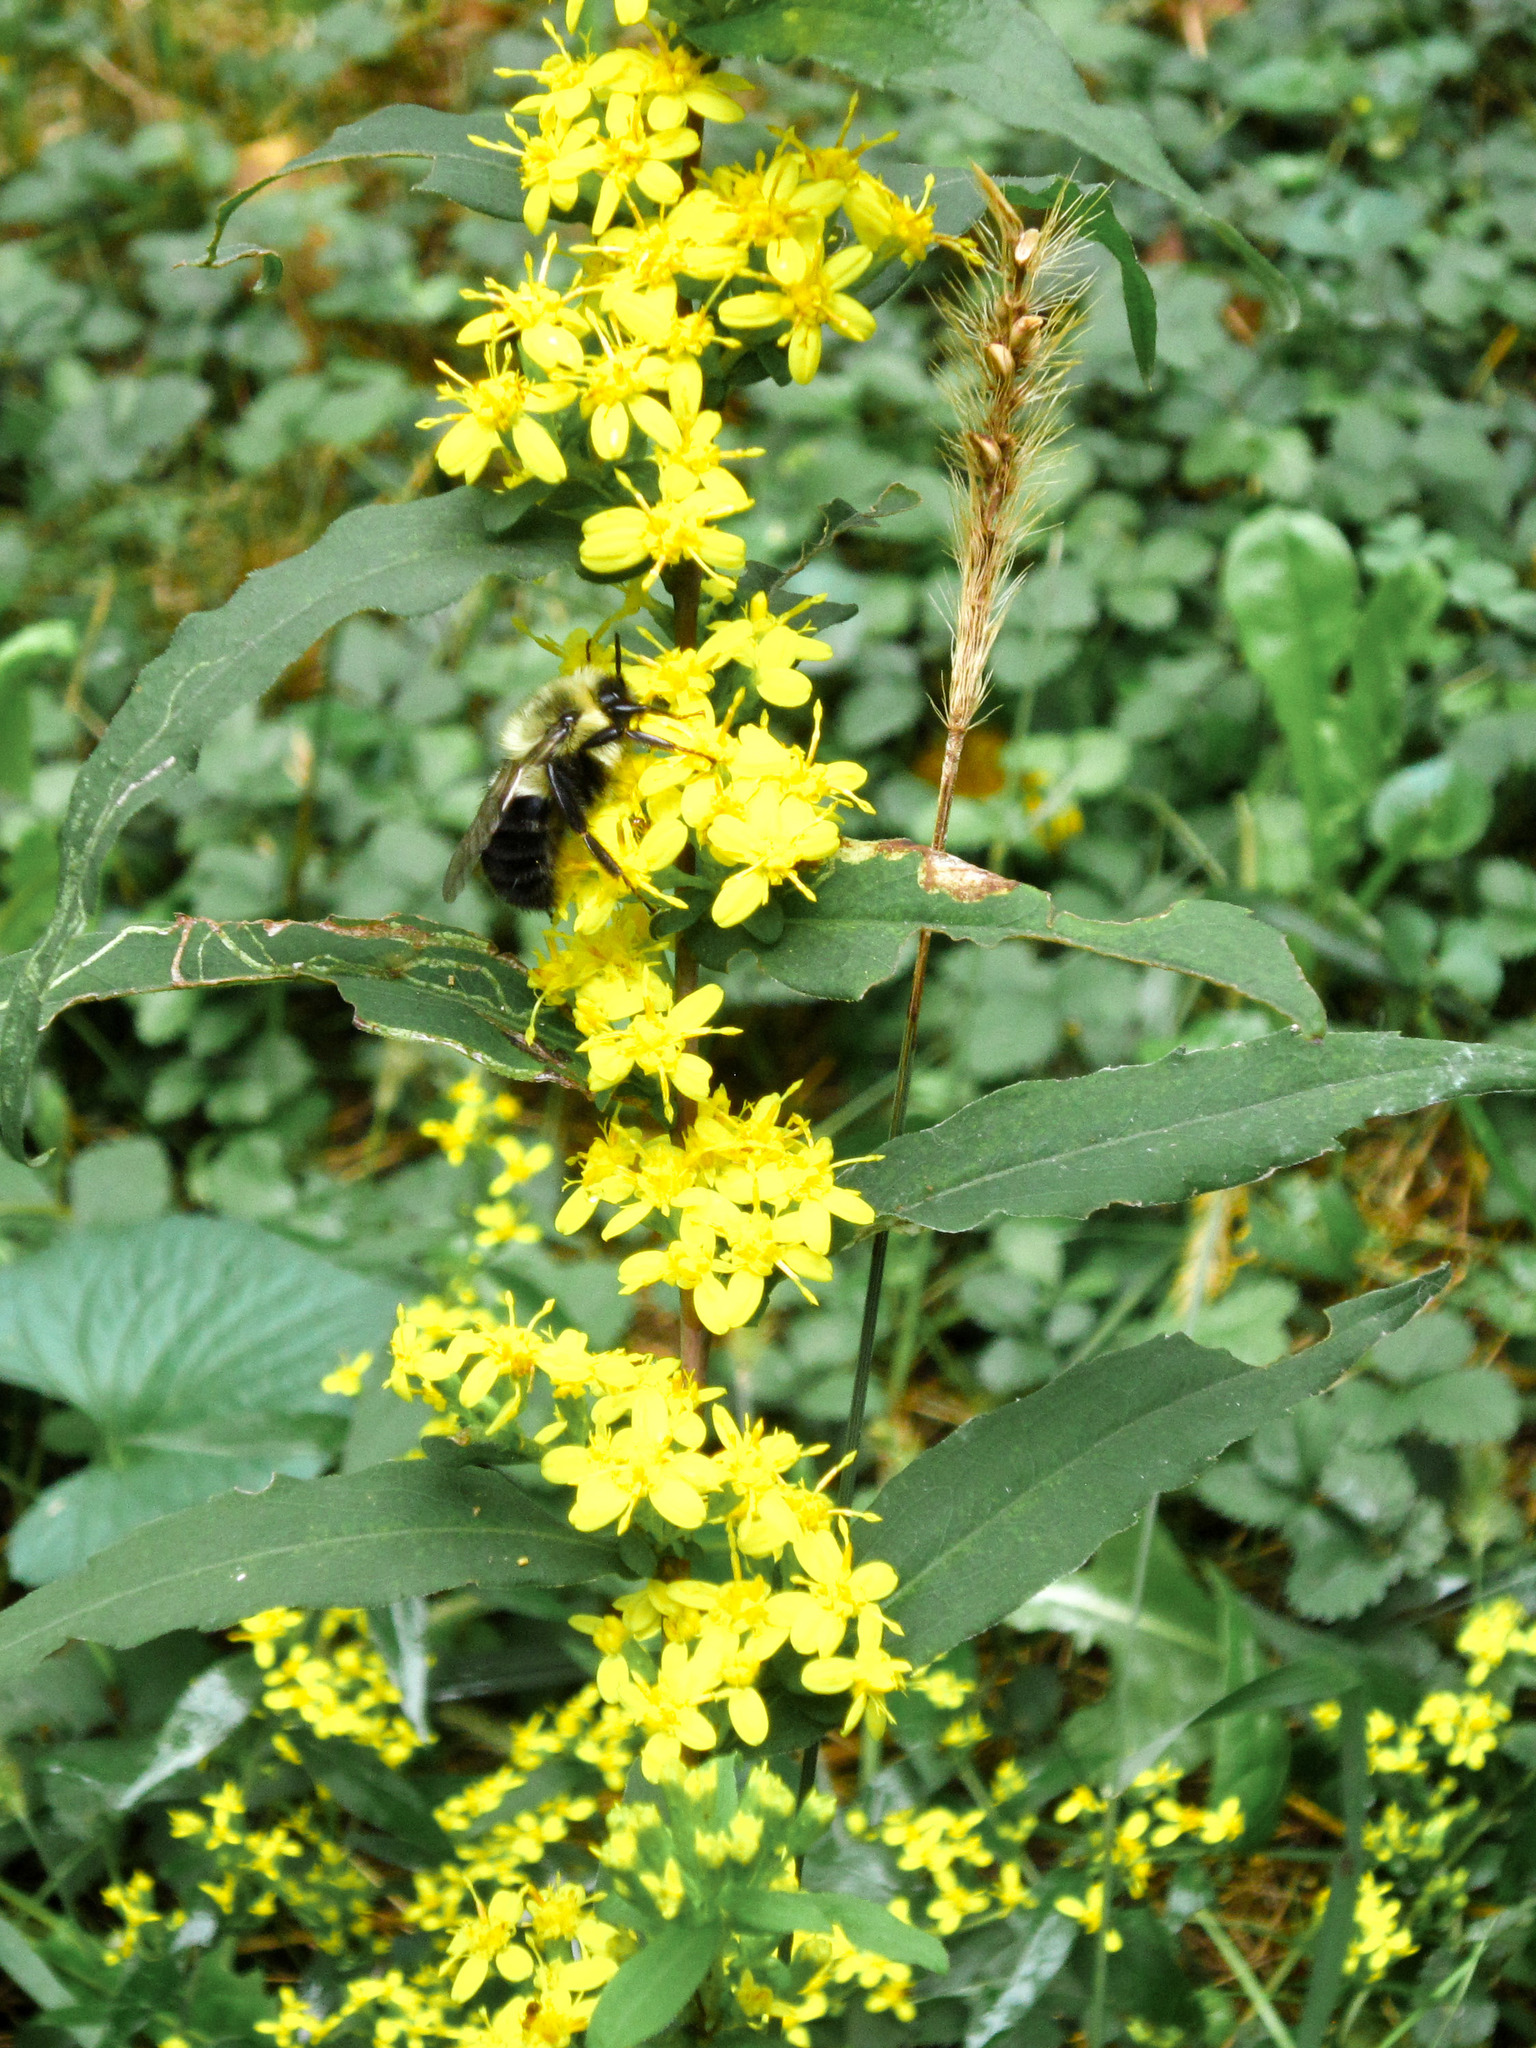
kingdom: Animalia
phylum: Arthropoda
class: Insecta
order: Hymenoptera
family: Apidae
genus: Bombus
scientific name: Bombus impatiens
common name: Common eastern bumble bee
